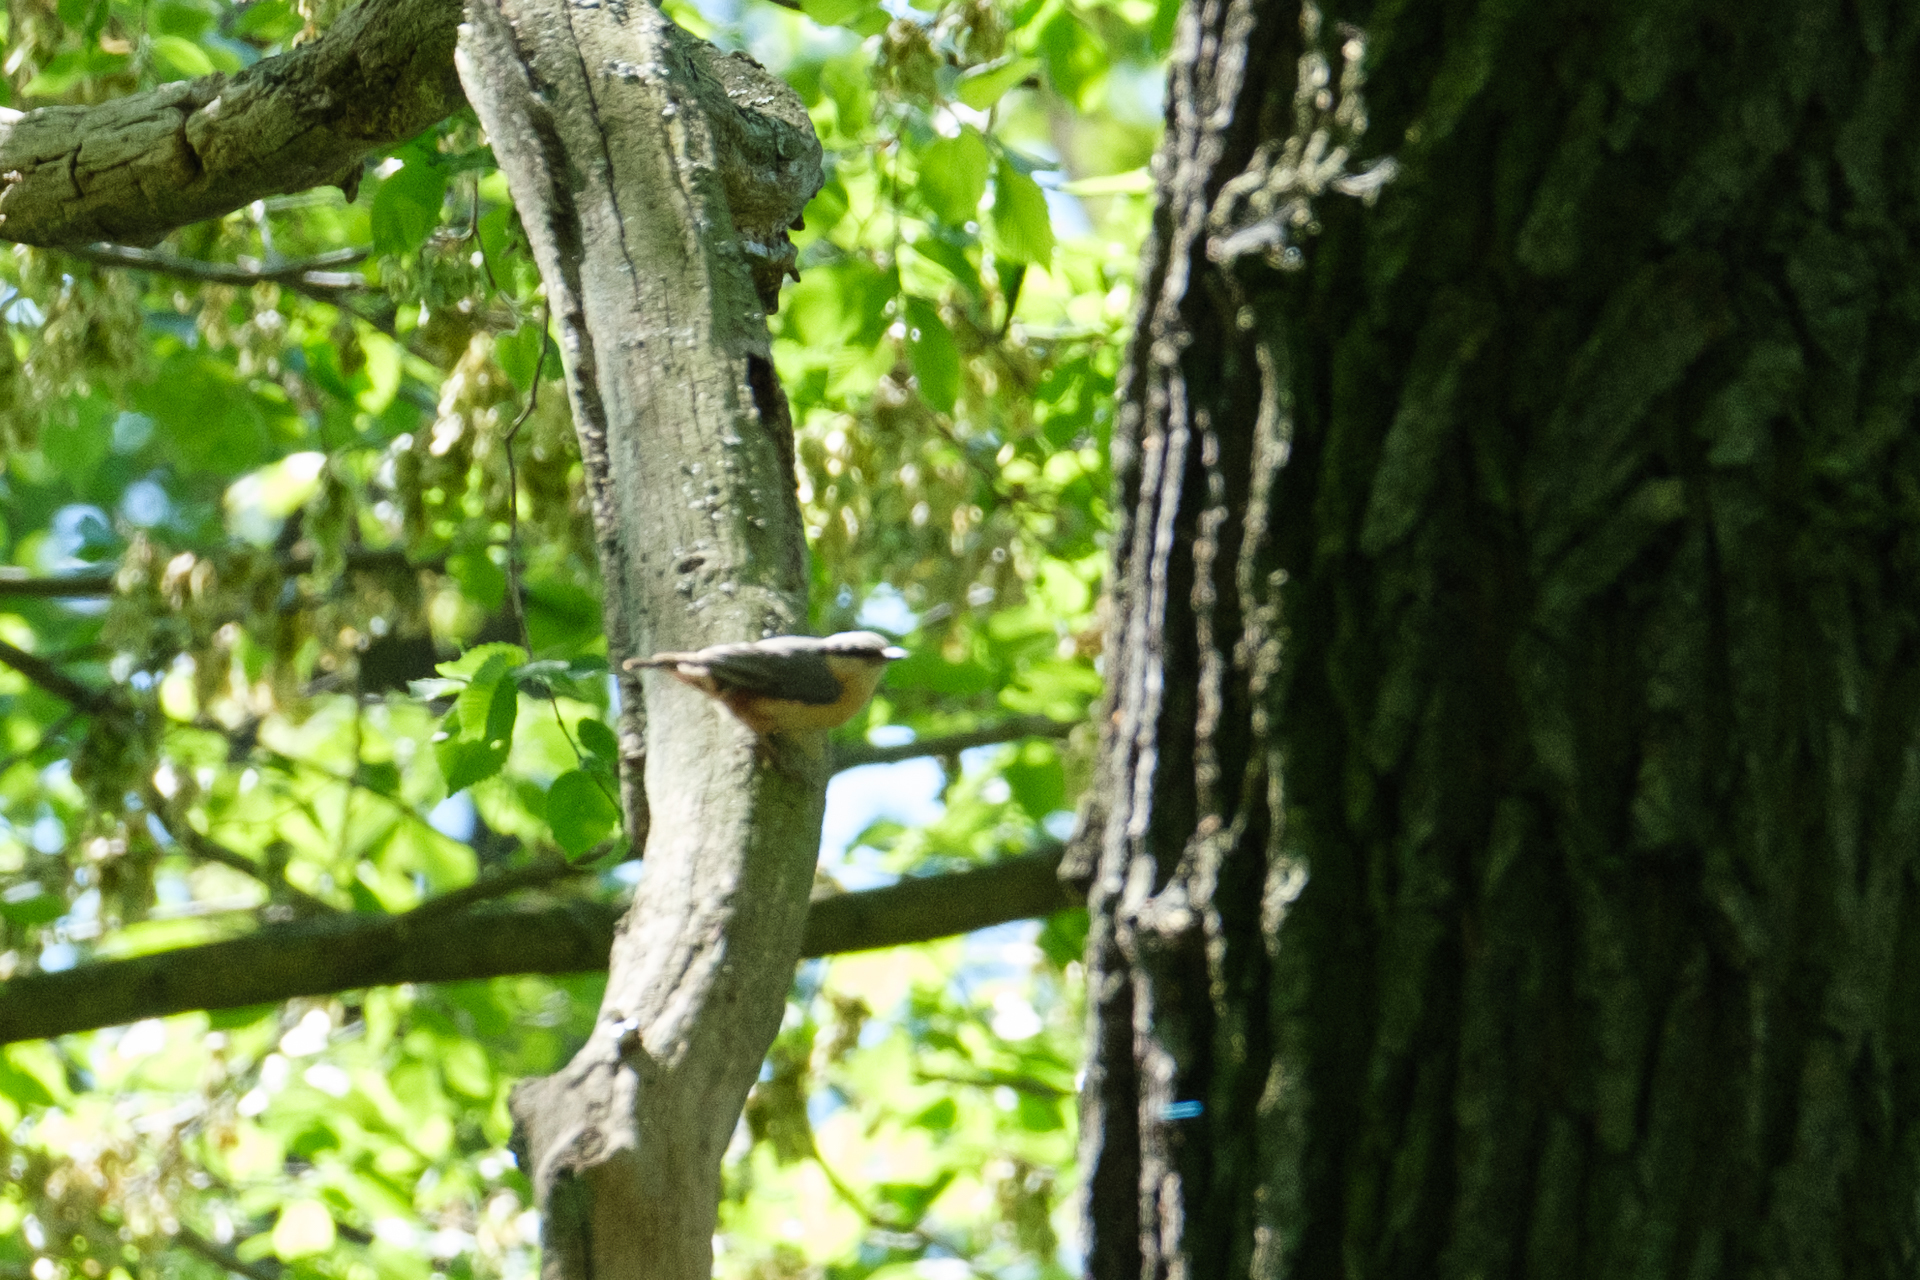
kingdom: Animalia
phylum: Chordata
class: Aves
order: Passeriformes
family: Sittidae
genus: Sitta
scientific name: Sitta europaea
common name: Eurasian nuthatch
